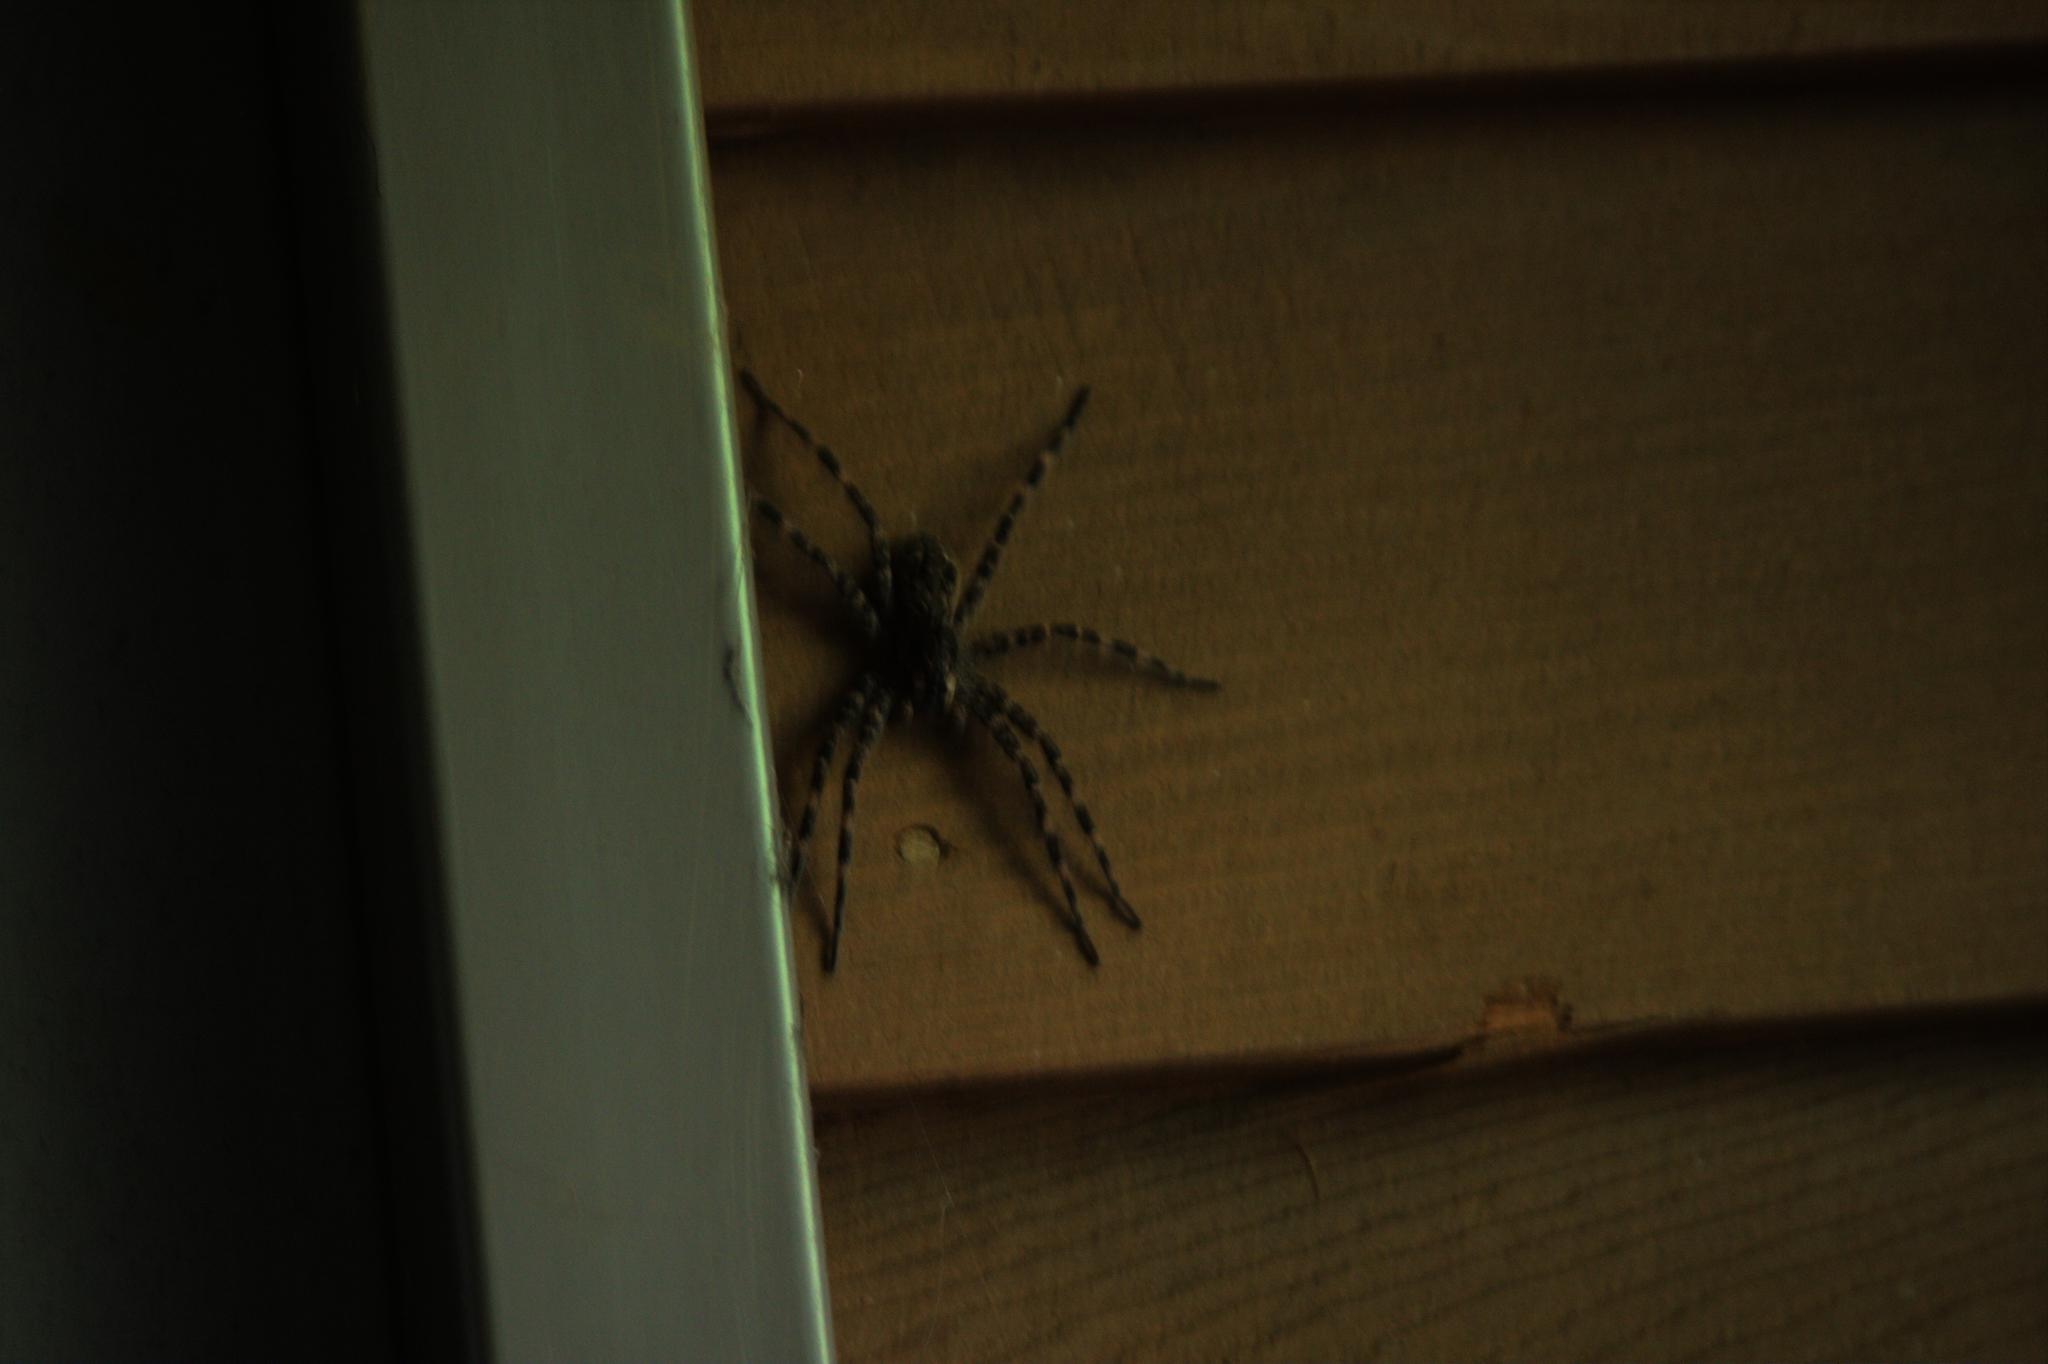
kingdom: Animalia
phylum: Arthropoda
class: Arachnida
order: Araneae
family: Pisauridae
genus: Dolomedes
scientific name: Dolomedes tenebrosus
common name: Dark fishing spider
